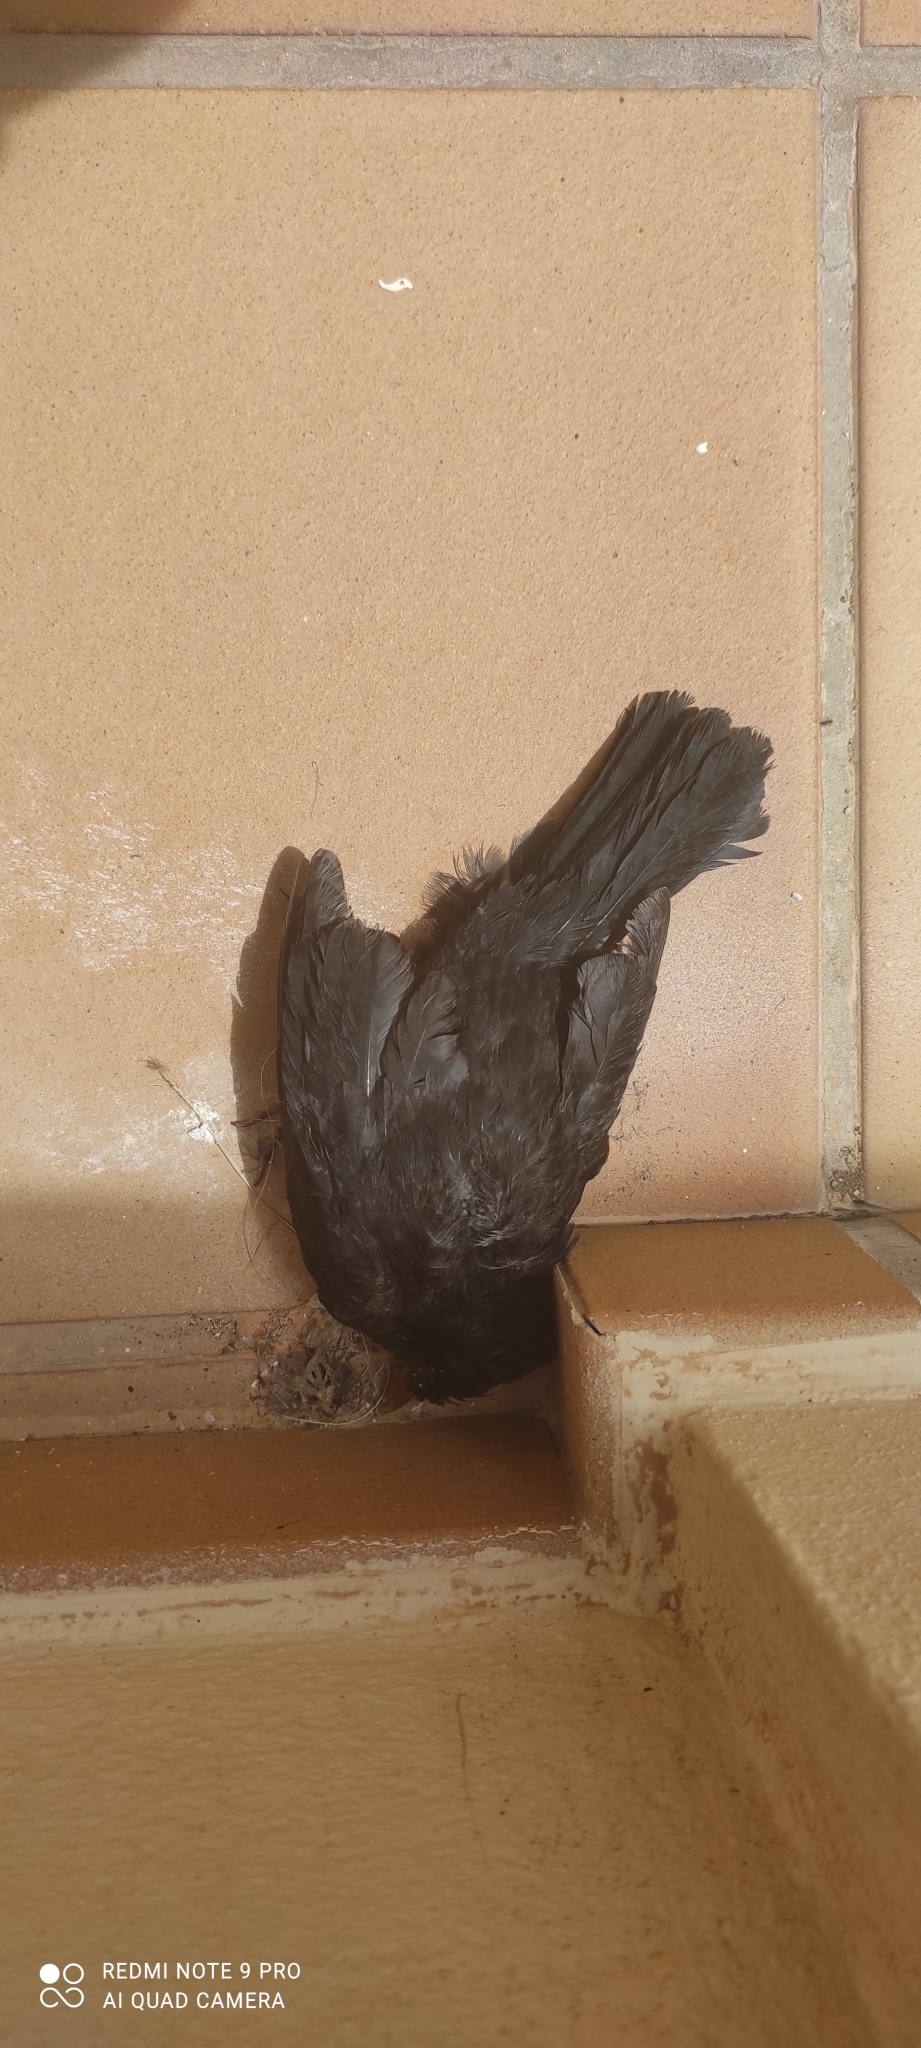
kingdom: Animalia
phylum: Chordata
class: Aves
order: Passeriformes
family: Turdidae
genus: Turdus
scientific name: Turdus merula
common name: Common blackbird
